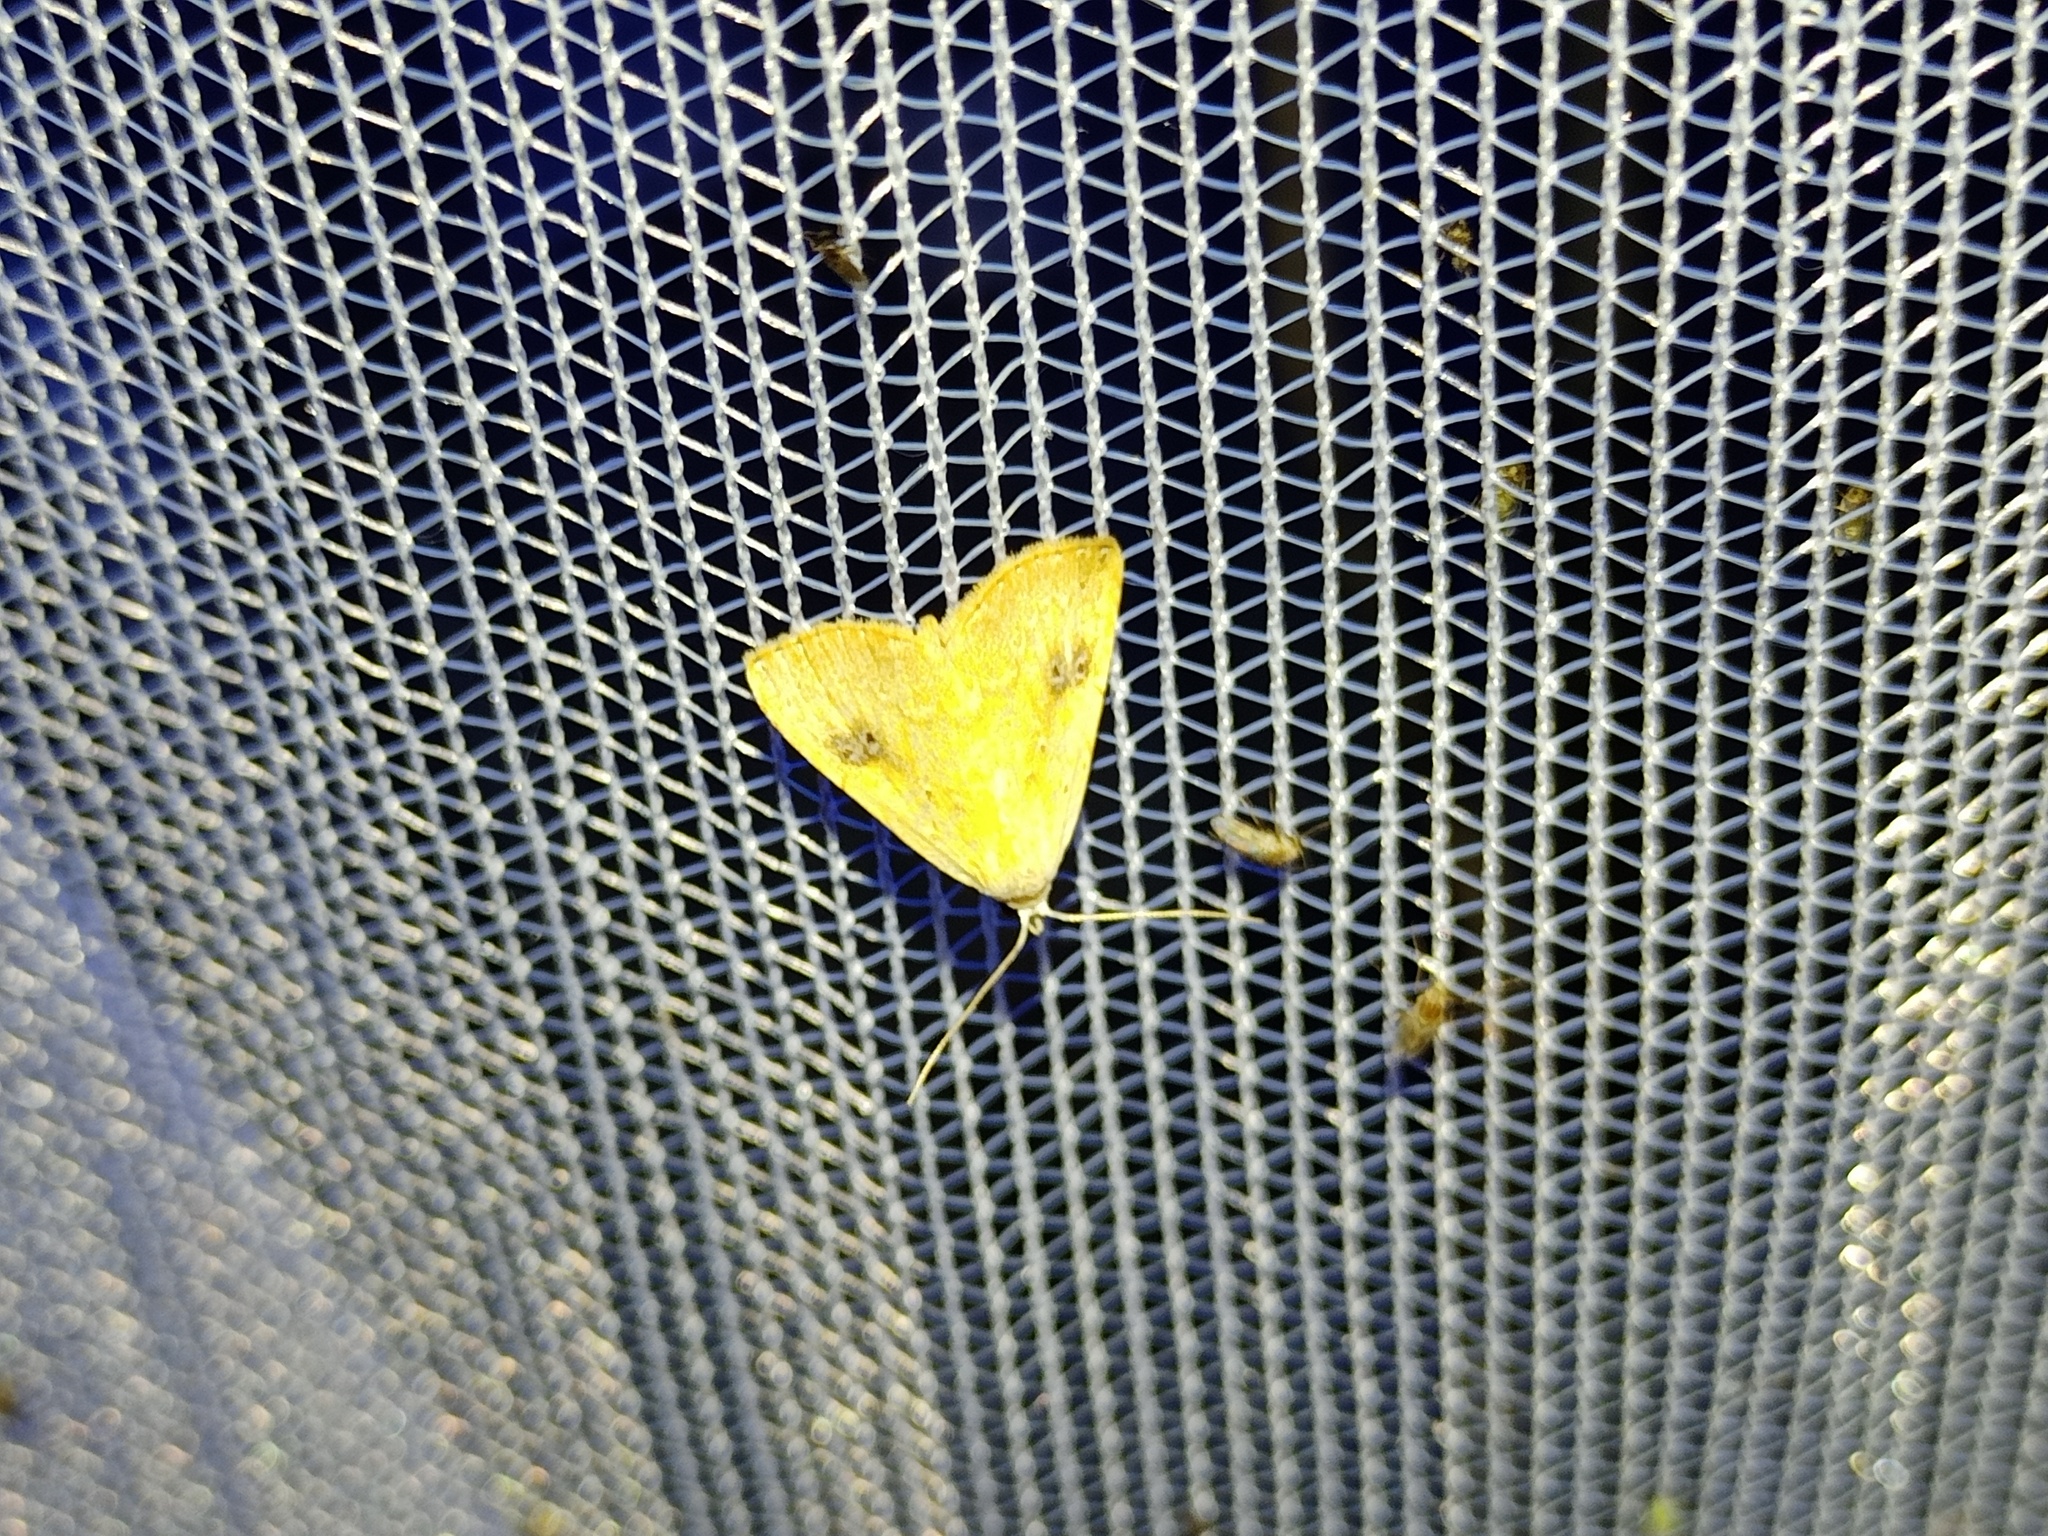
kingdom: Animalia
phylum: Arthropoda
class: Insecta
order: Lepidoptera
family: Erebidae
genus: Rivula
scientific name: Rivula sericealis
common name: Straw dot
